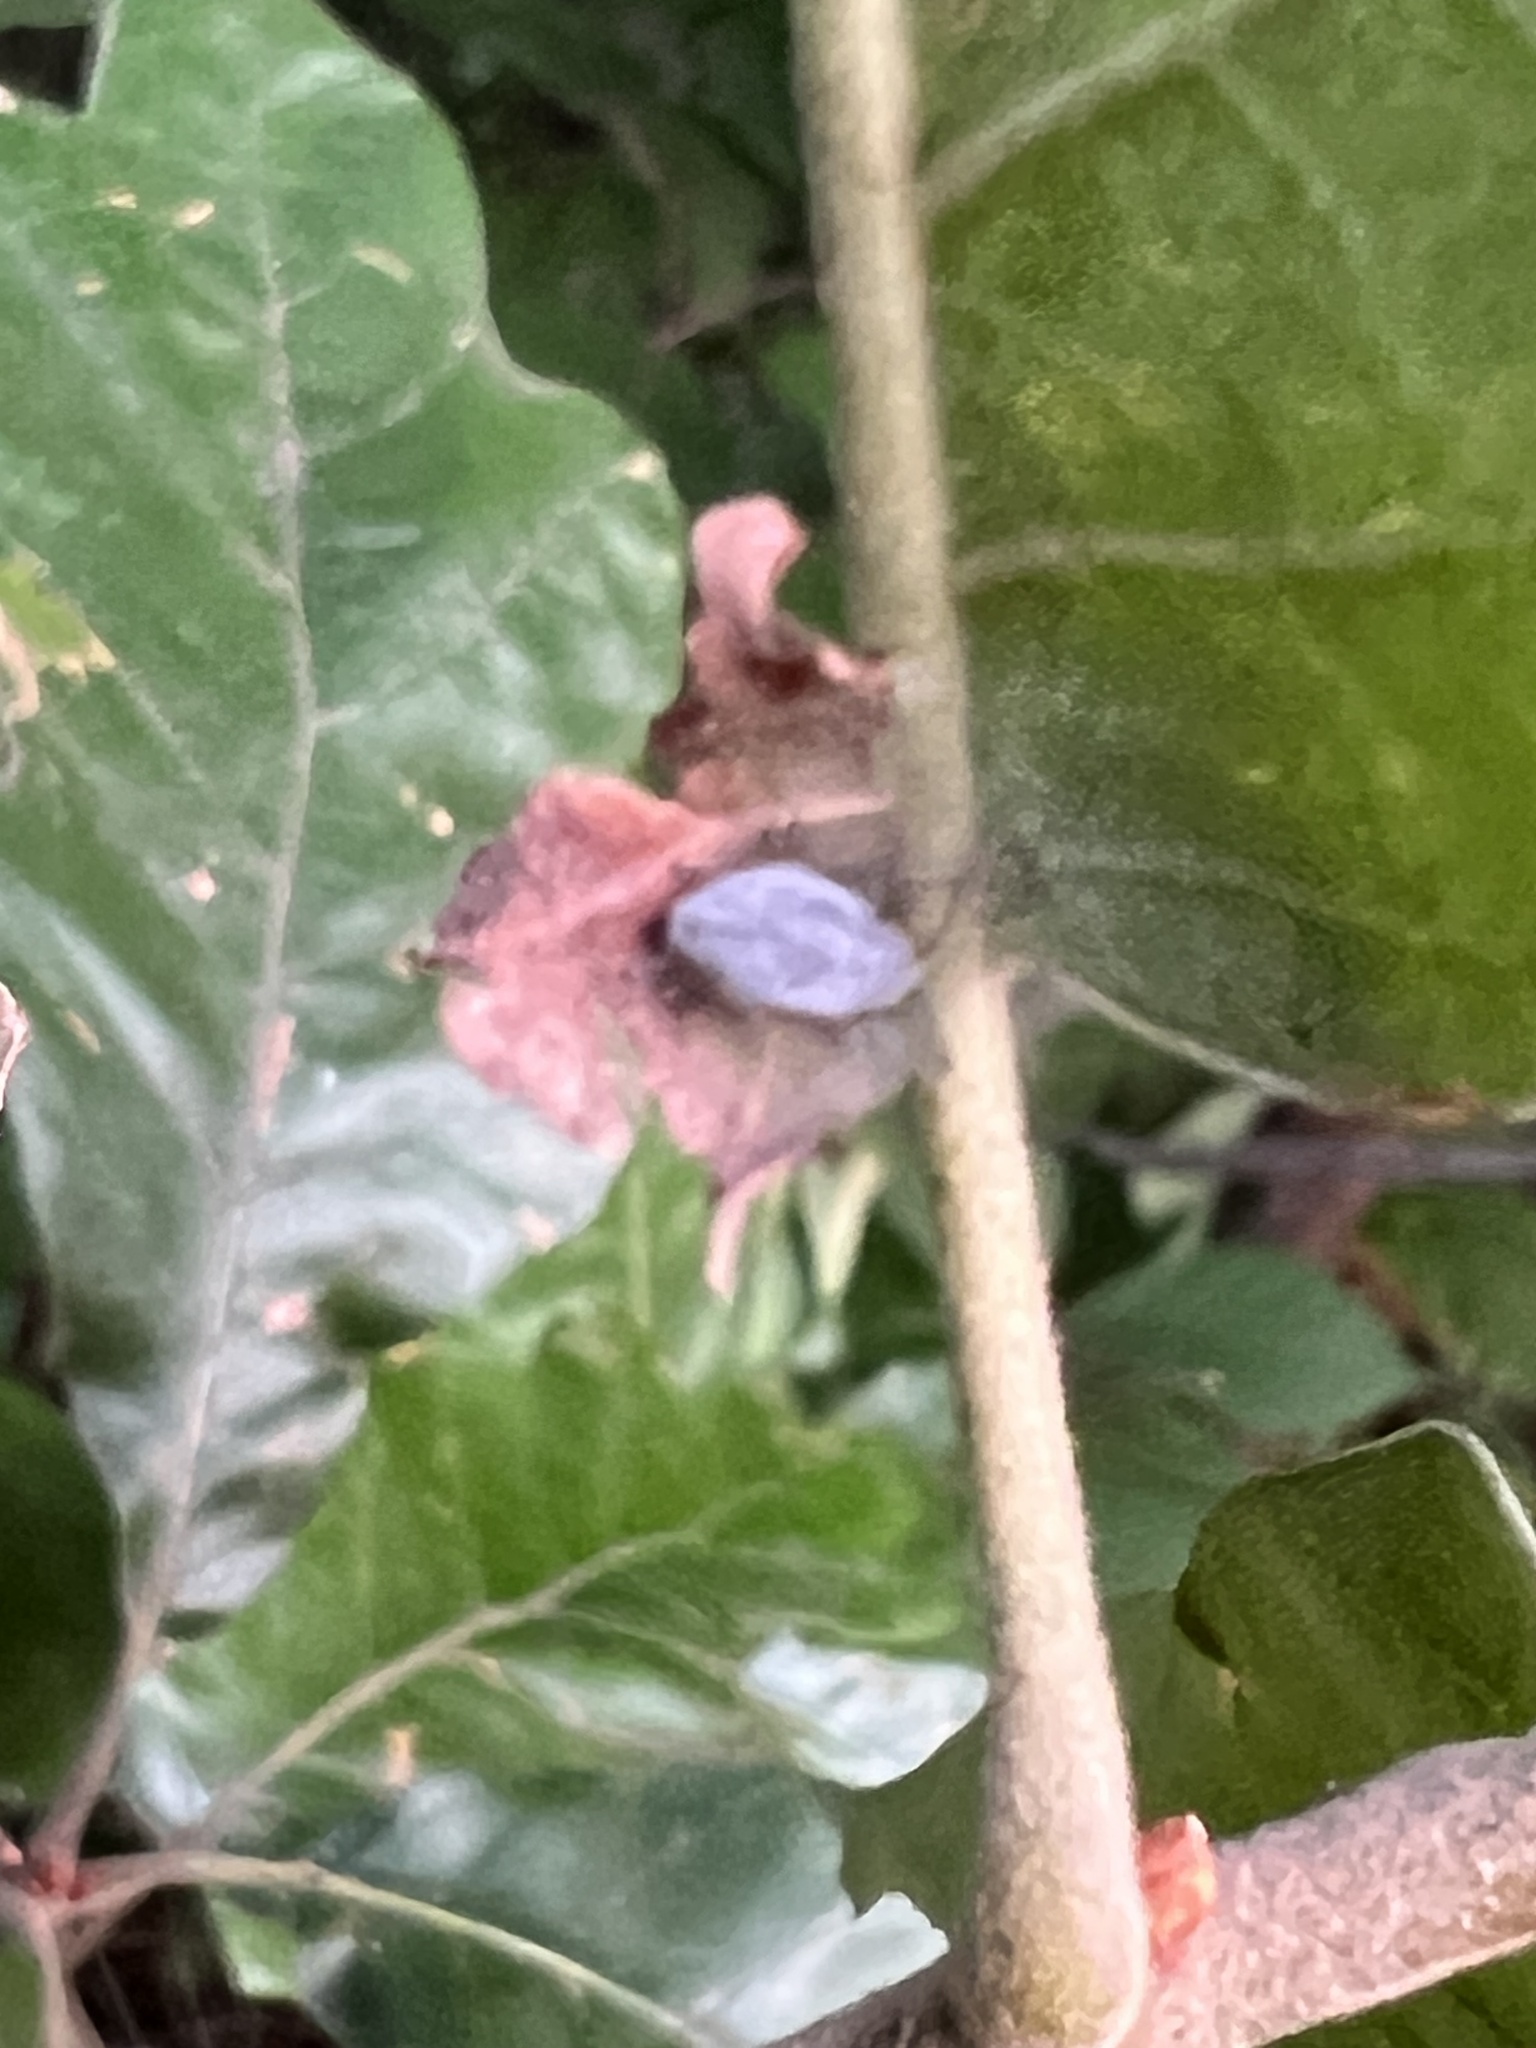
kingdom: Animalia
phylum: Arthropoda
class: Insecta
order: Coleoptera
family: Curculionidae
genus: Cyrtepistomus
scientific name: Cyrtepistomus castaneus
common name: Weevil
